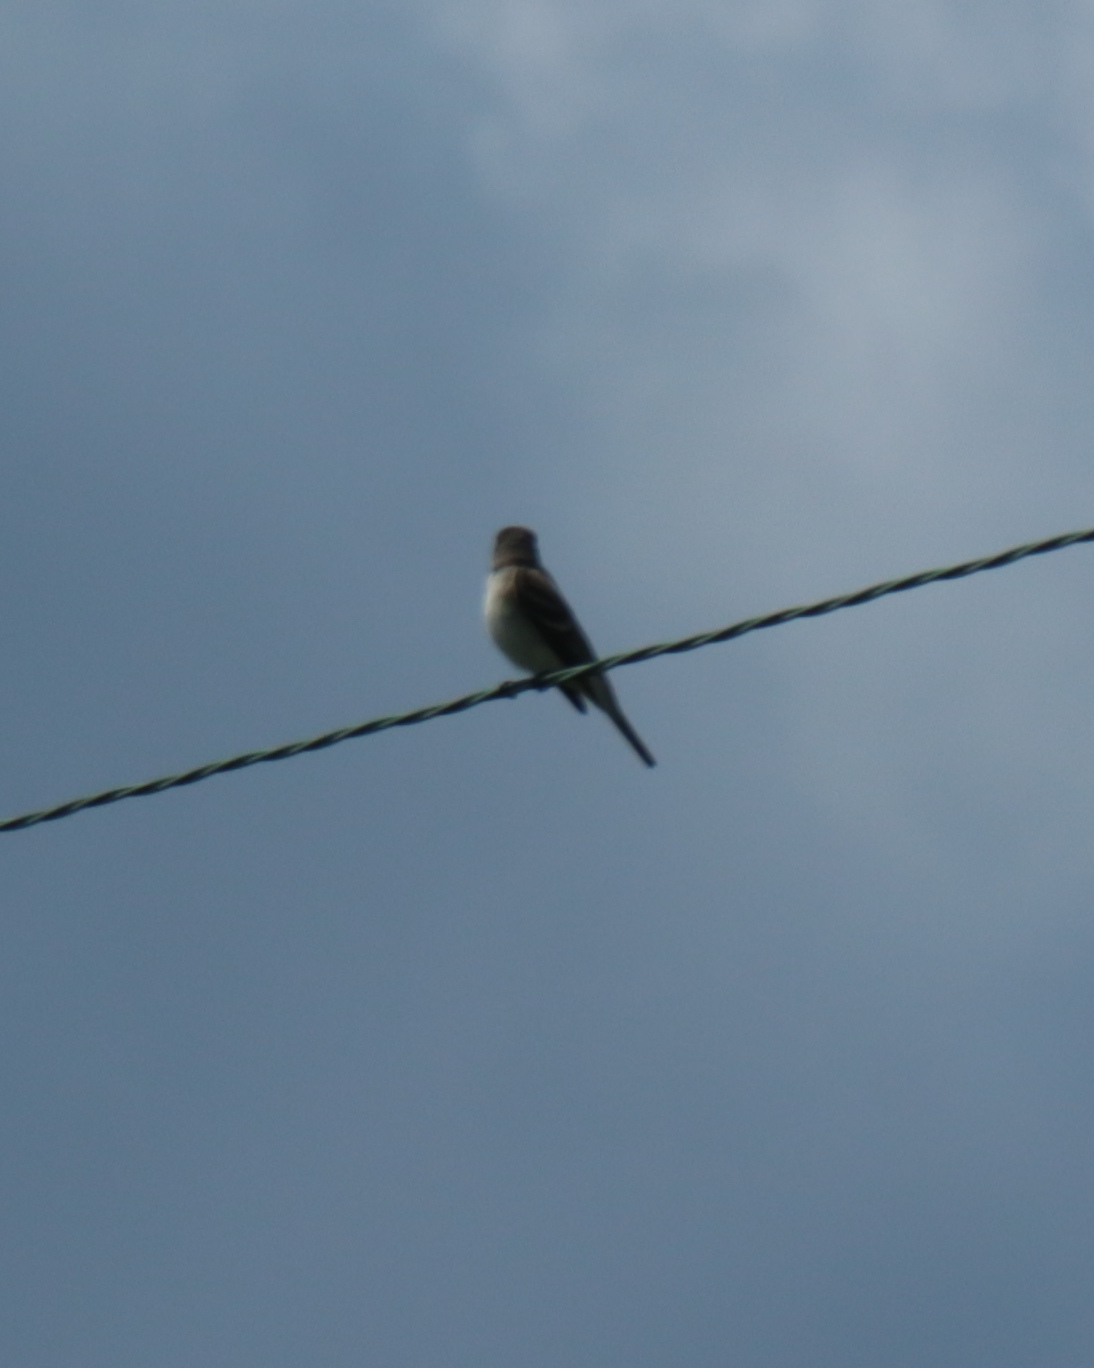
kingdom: Animalia
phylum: Chordata
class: Aves
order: Passeriformes
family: Tyrannidae
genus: Empidonax
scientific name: Empidonax traillii
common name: Willow flycatcher
